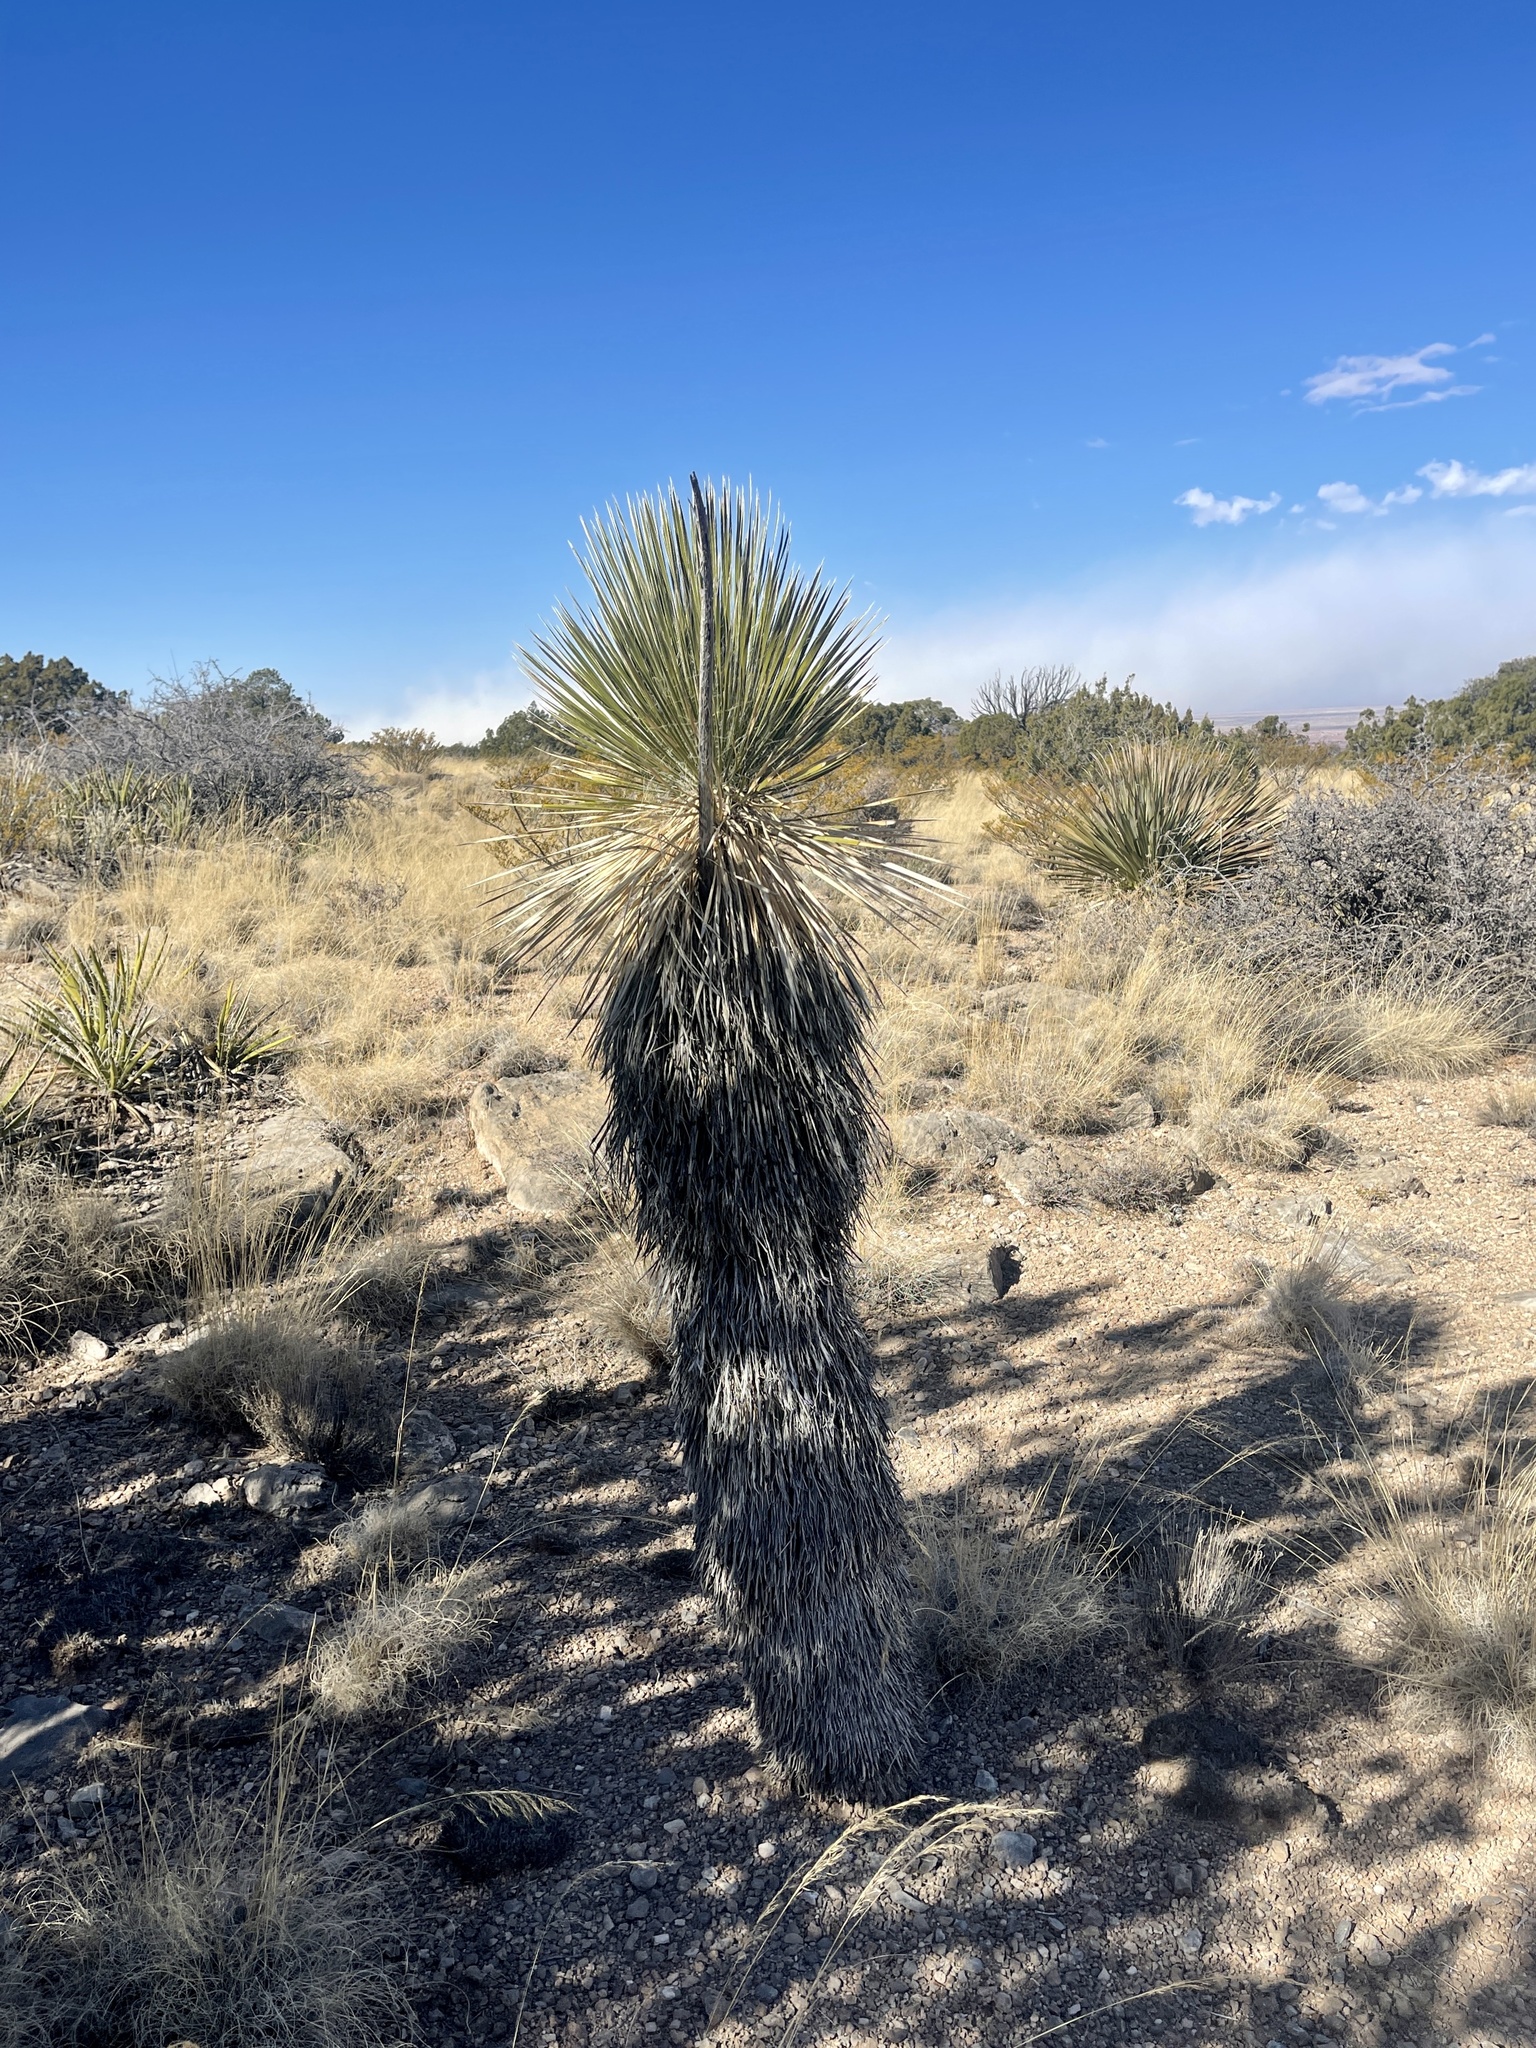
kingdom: Plantae
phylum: Tracheophyta
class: Liliopsida
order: Asparagales
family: Asparagaceae
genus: Yucca
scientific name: Yucca elata
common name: Palmella
